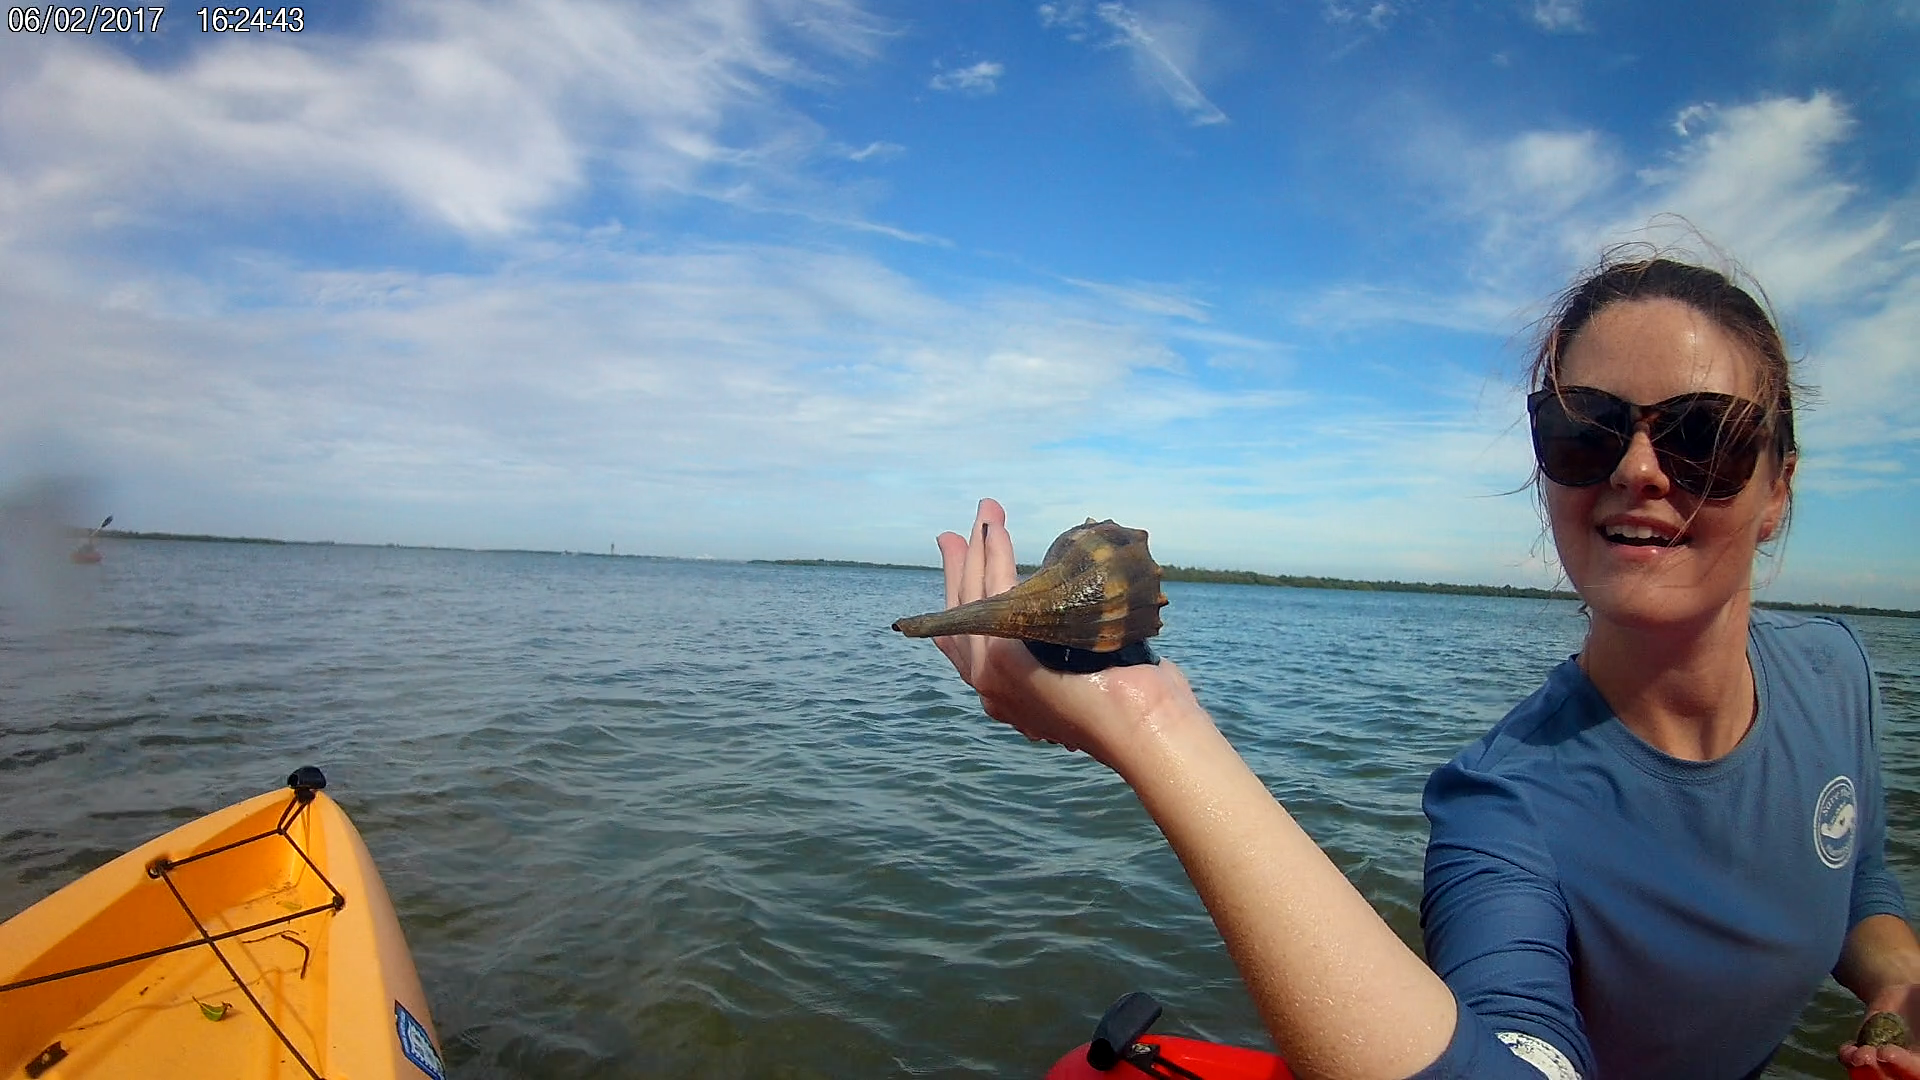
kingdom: Animalia
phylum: Mollusca
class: Gastropoda
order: Neogastropoda
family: Busyconidae
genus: Sinistrofulgur
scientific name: Sinistrofulgur sinistrum
